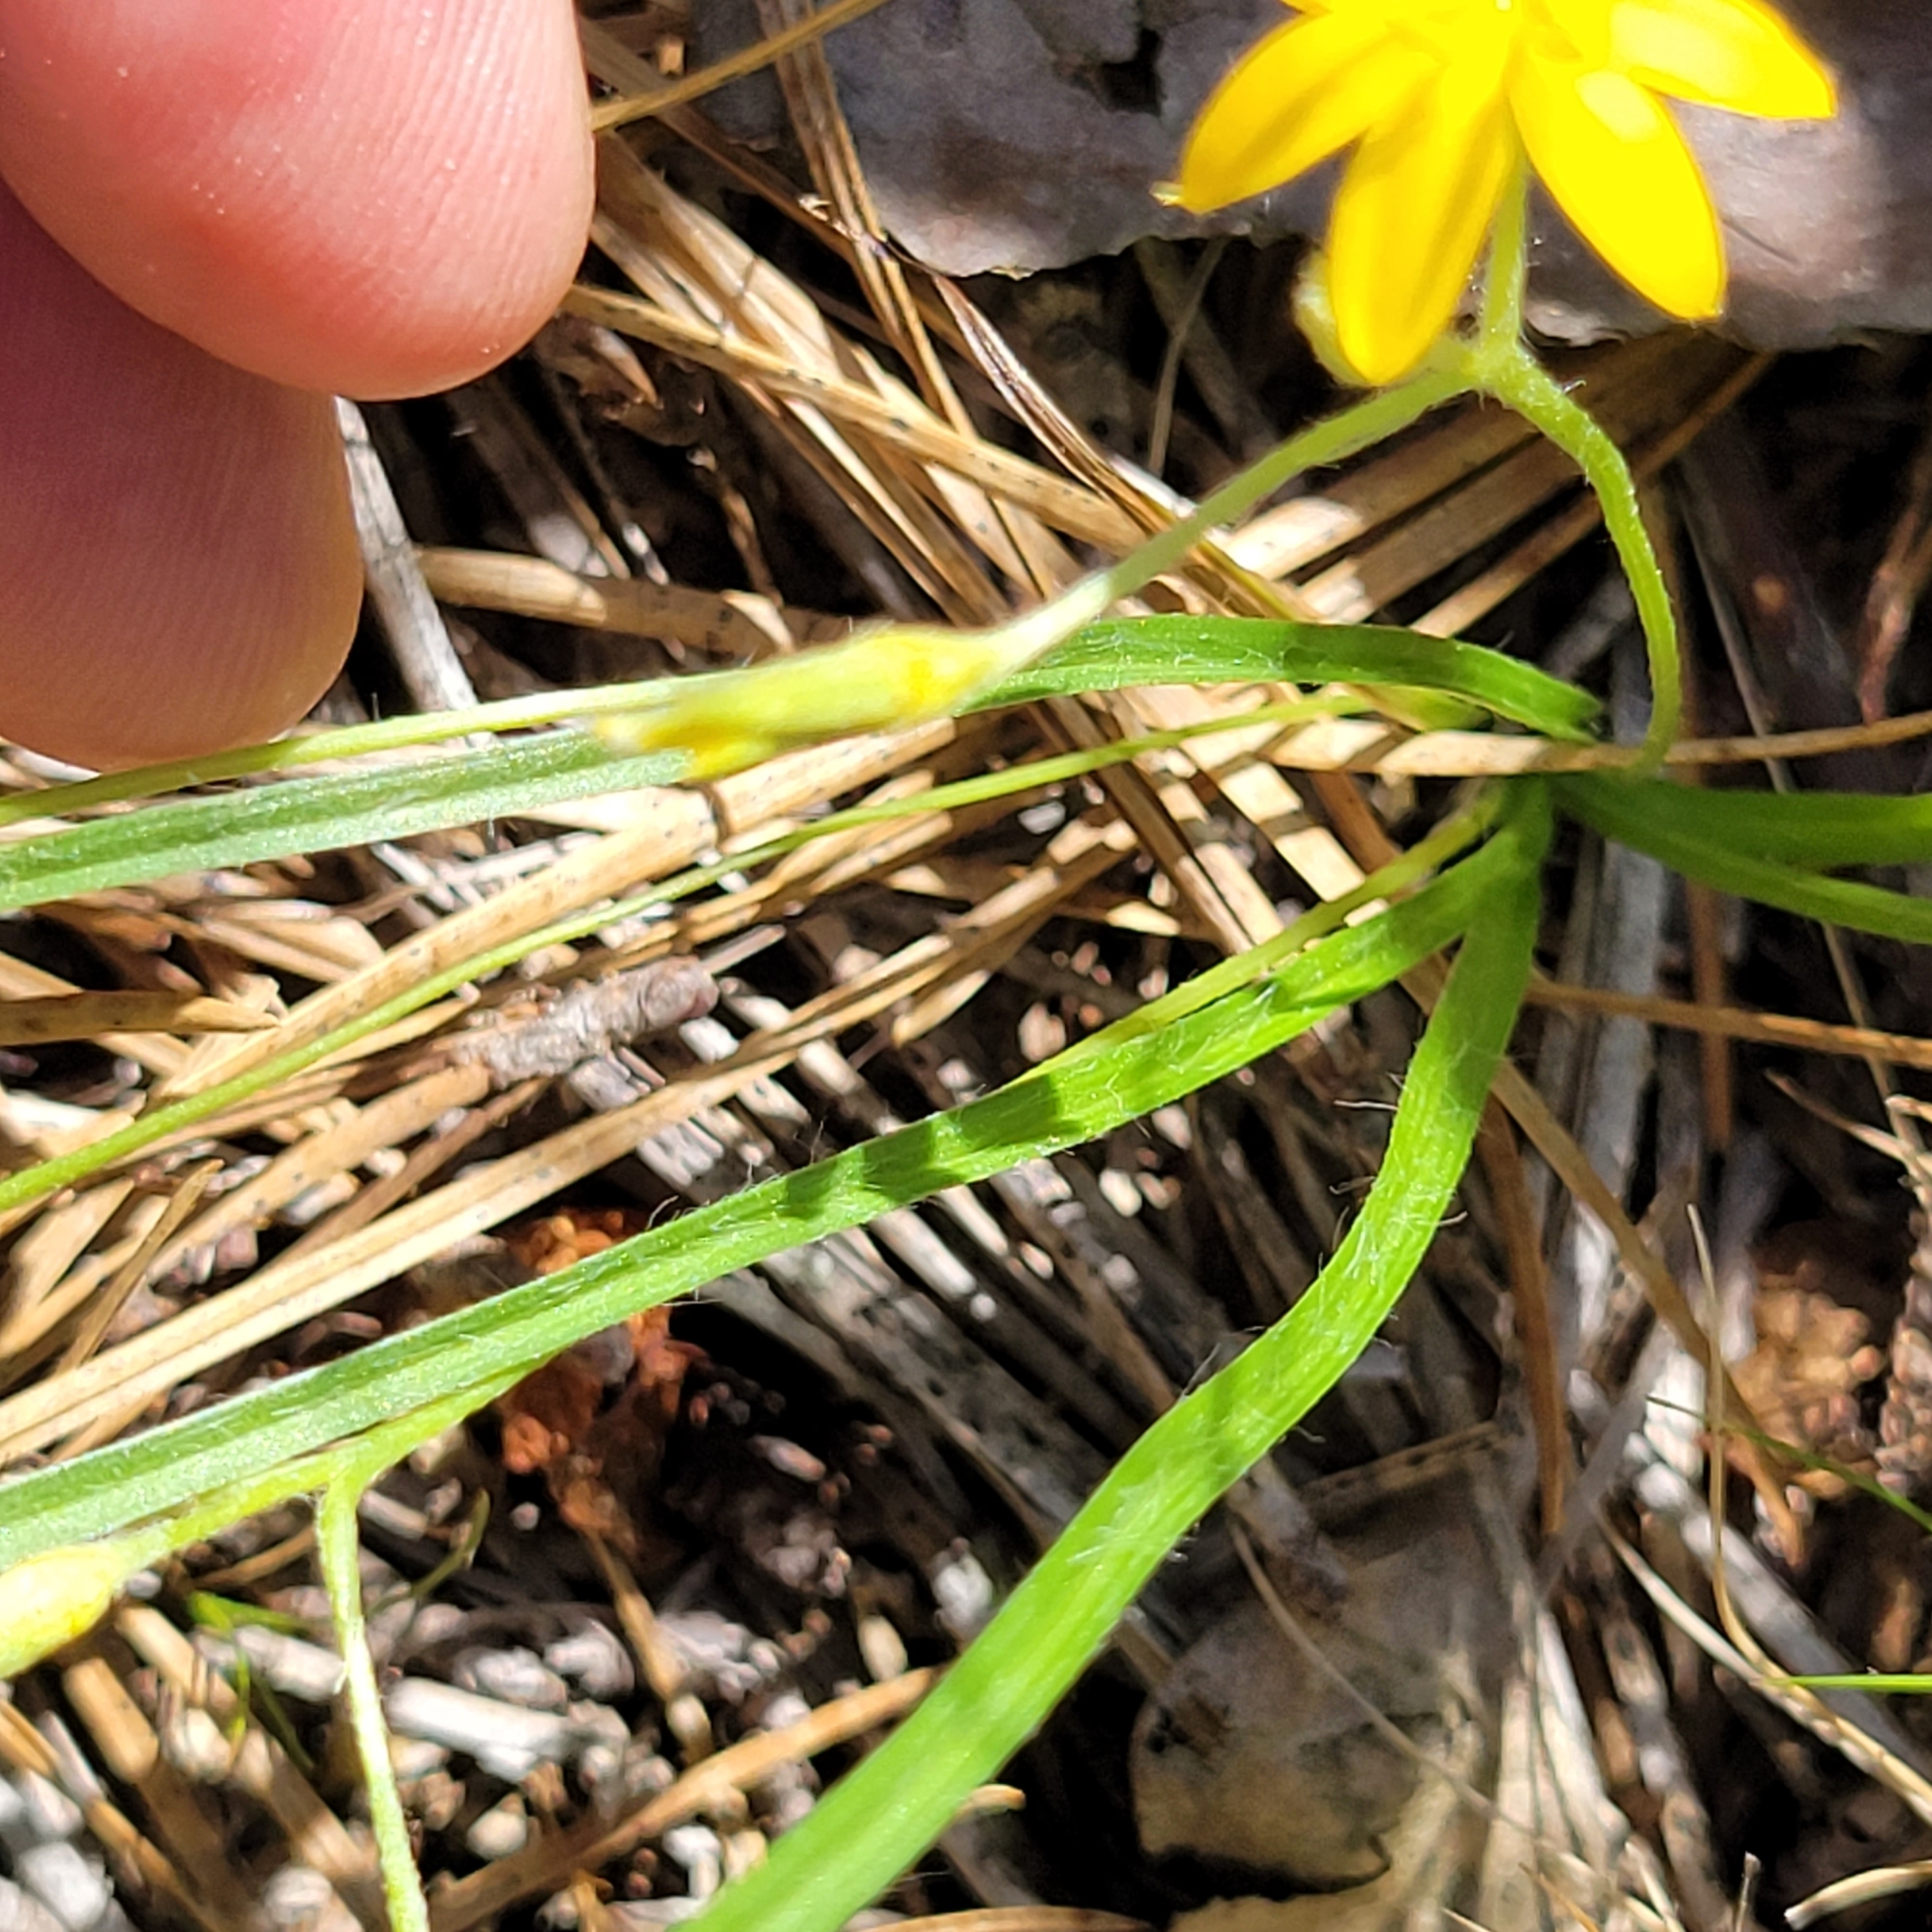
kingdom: Plantae
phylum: Tracheophyta
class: Liliopsida
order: Asparagales
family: Hypoxidaceae
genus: Hypoxis
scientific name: Hypoxis hirsuta
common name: Common goldstar
